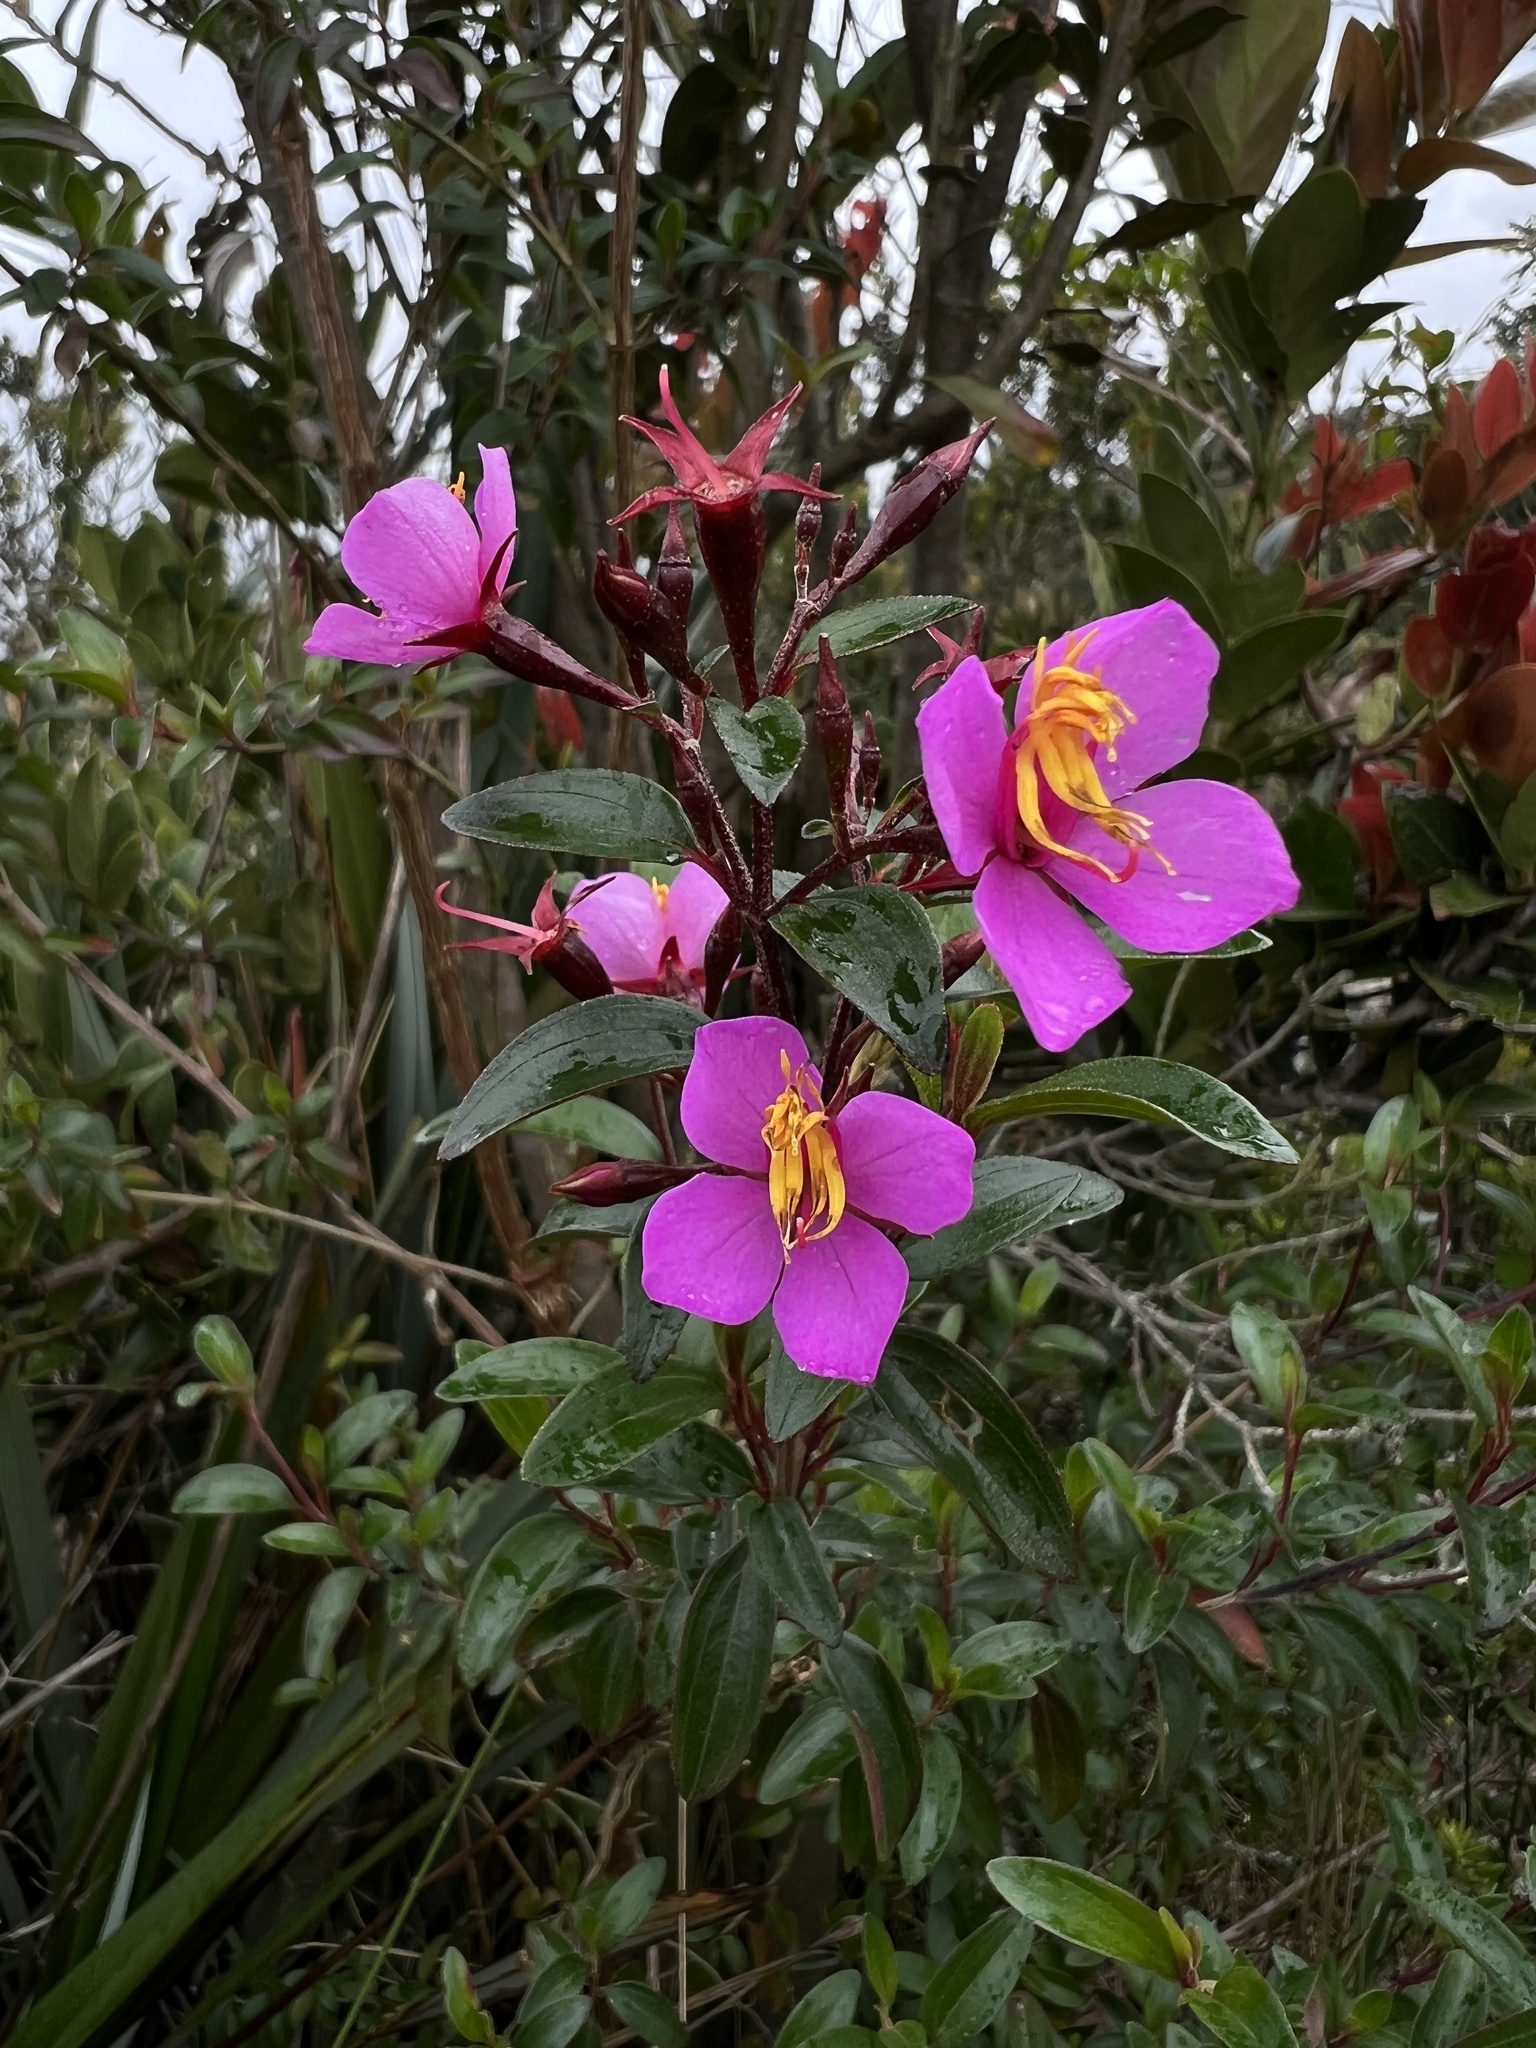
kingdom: Plantae
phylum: Tracheophyta
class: Magnoliopsida
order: Myrtales
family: Melastomataceae
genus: Monochaetum
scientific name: Monochaetum myrtoideum
